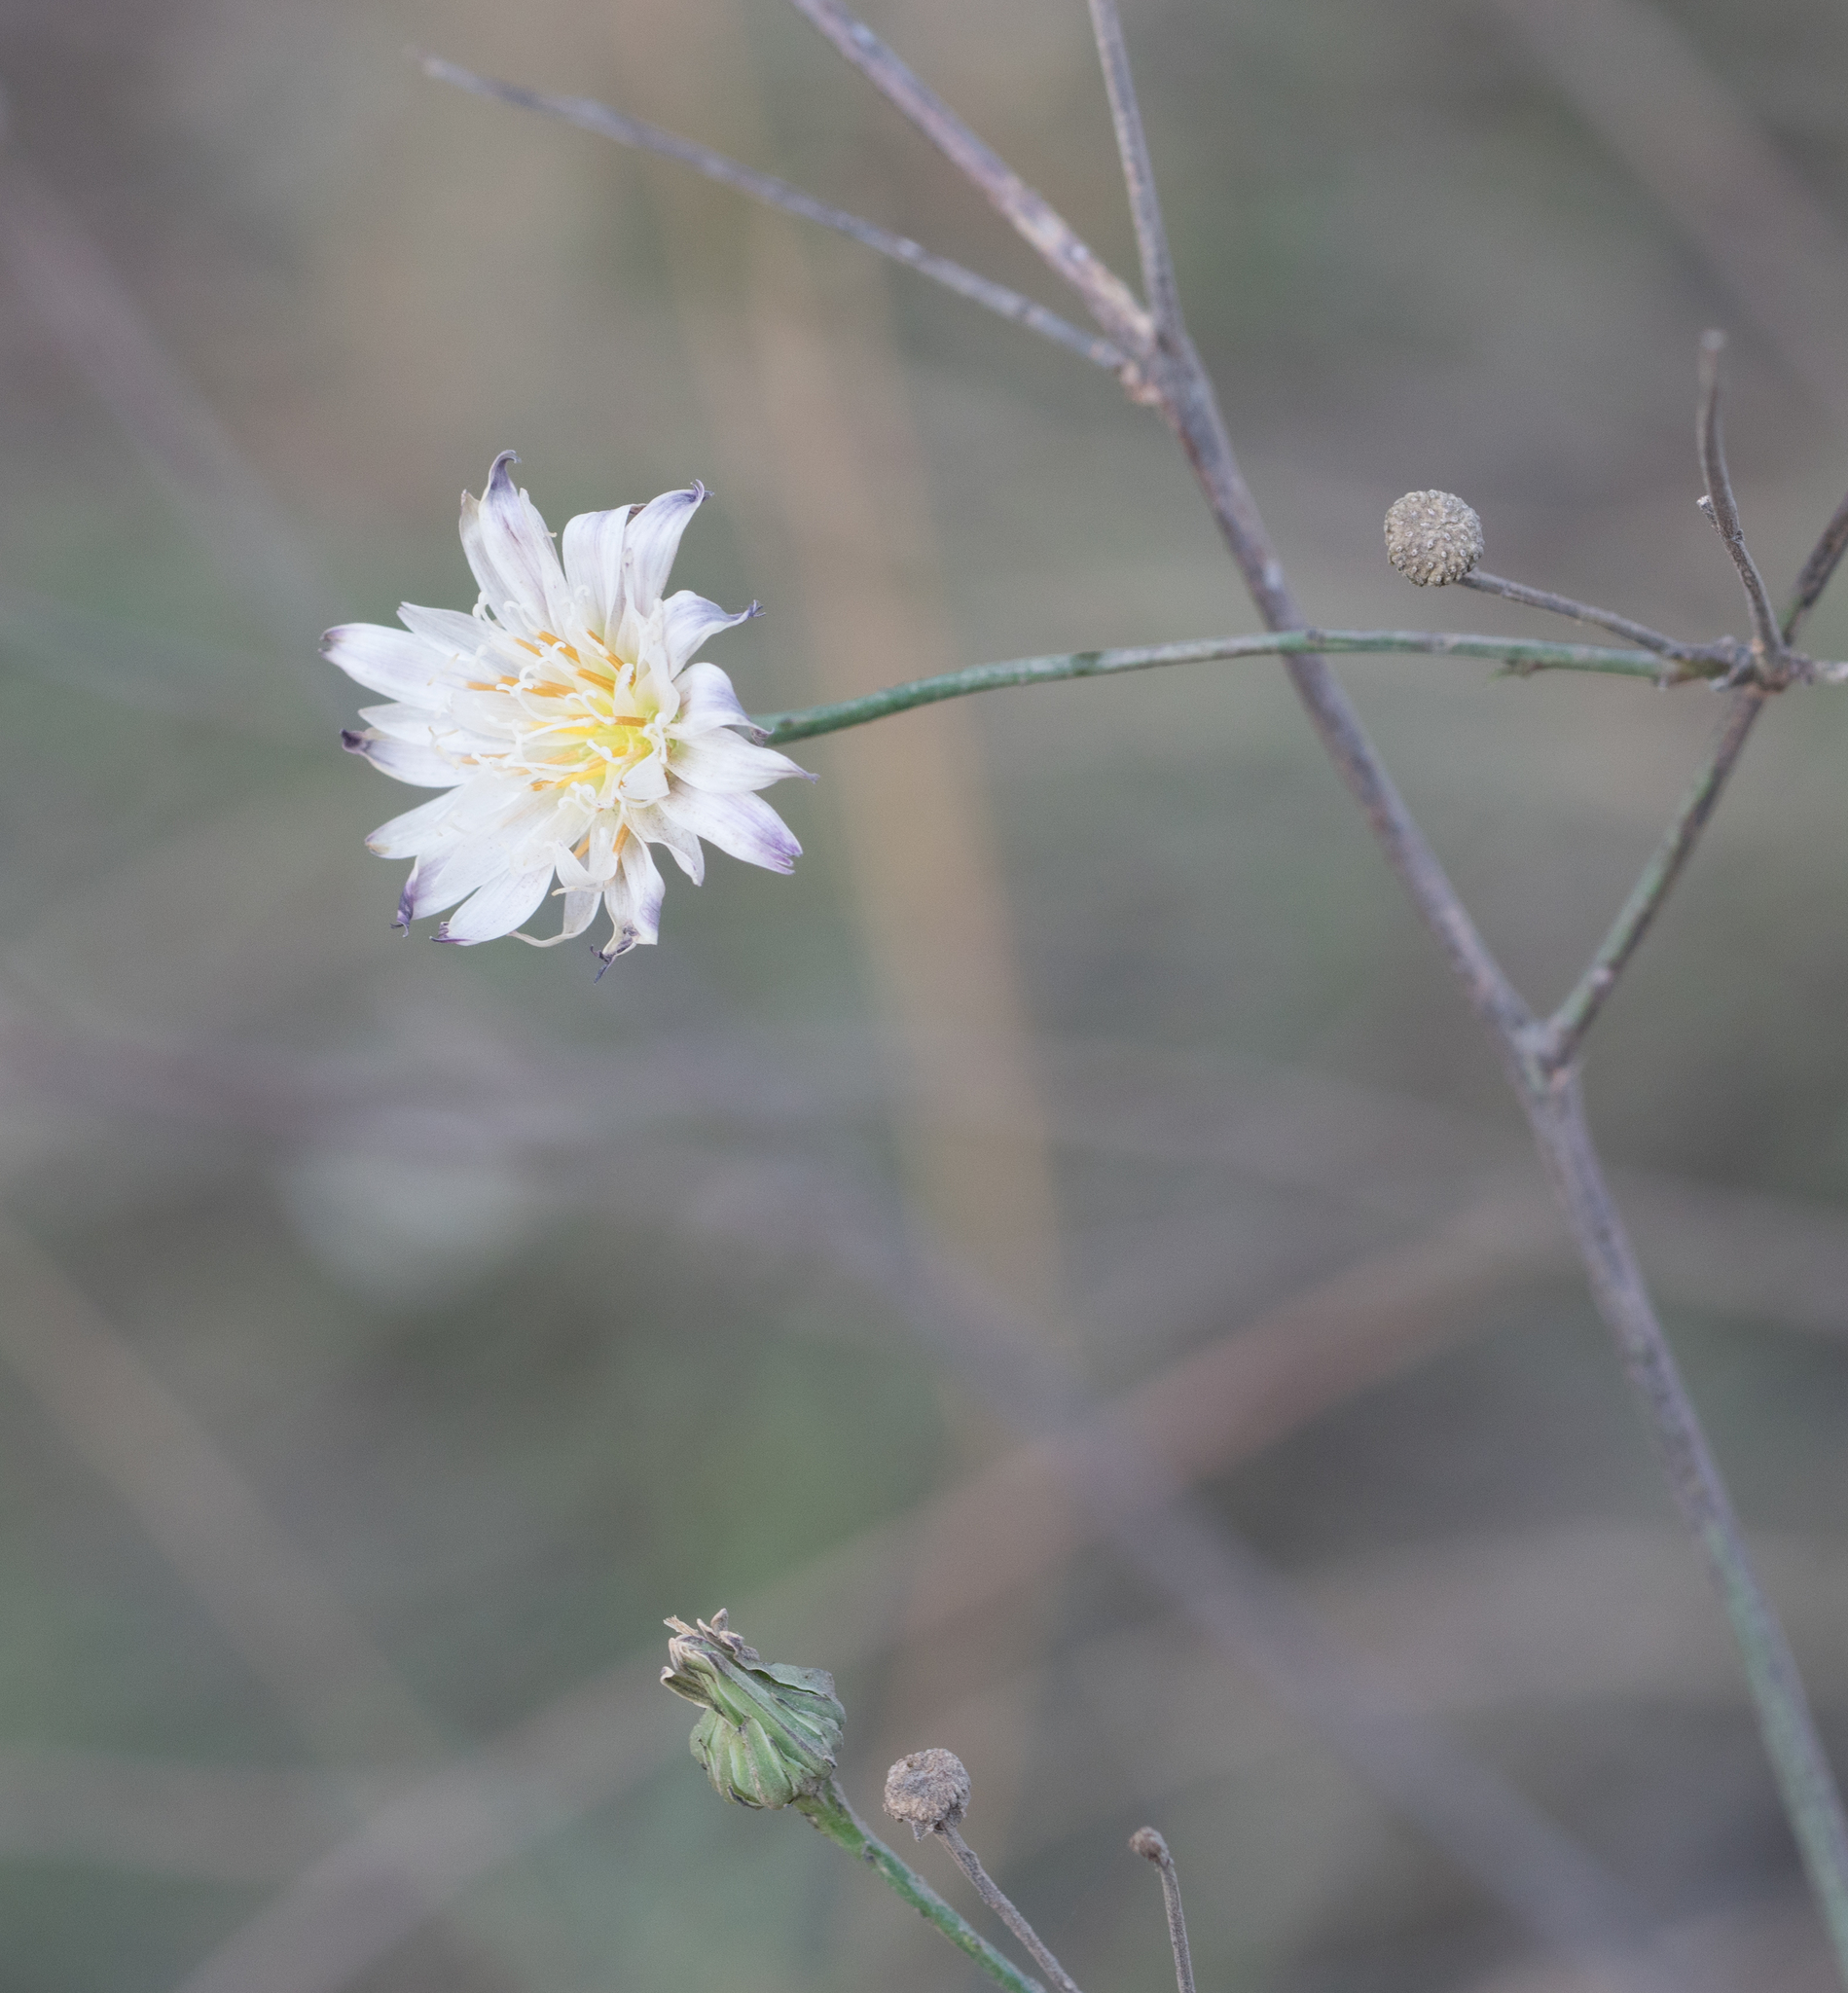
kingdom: Plantae
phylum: Tracheophyta
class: Magnoliopsida
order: Asterales
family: Asteraceae
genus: Malacothrix
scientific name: Malacothrix saxatilis
